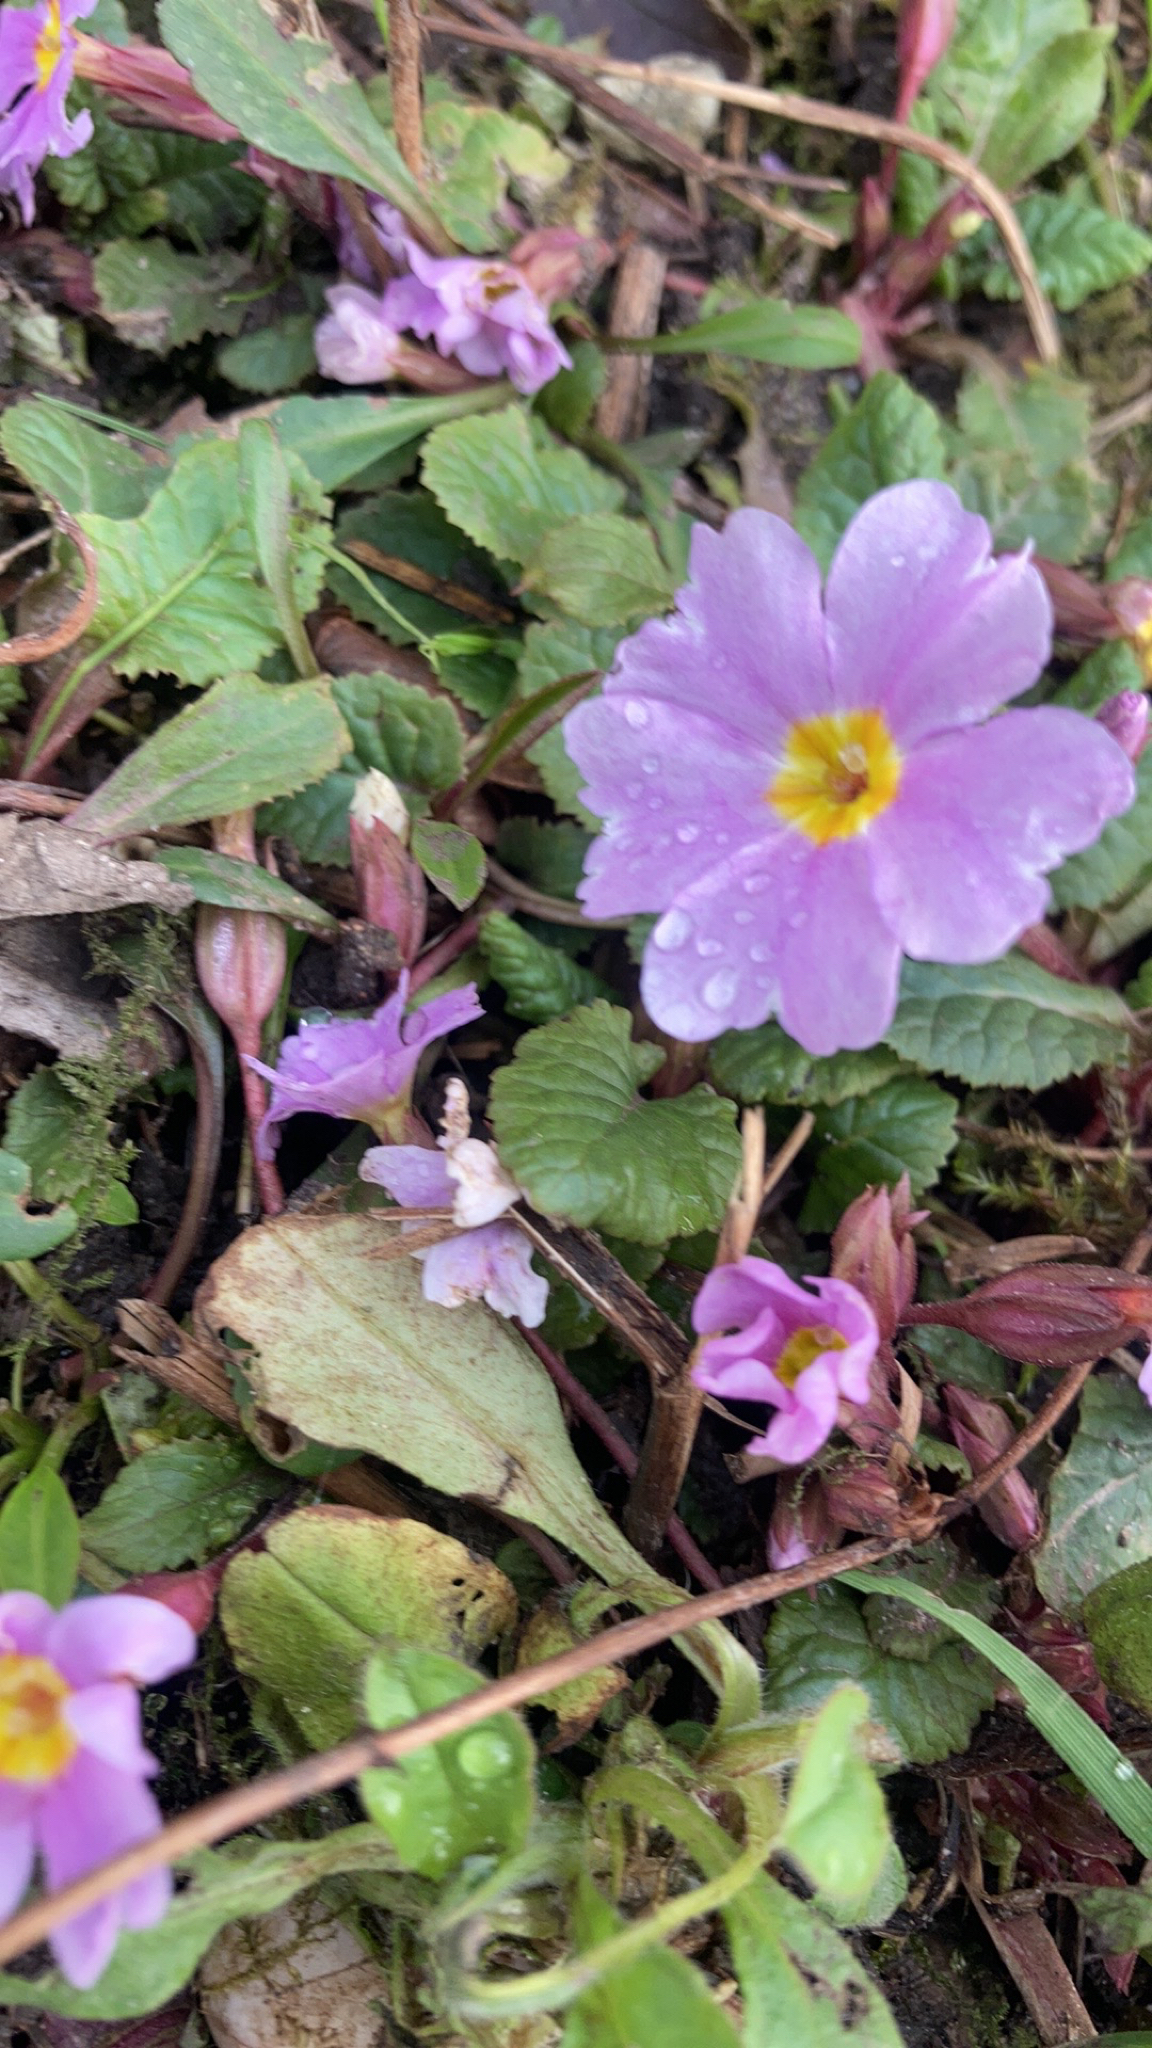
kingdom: Plantae
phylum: Tracheophyta
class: Magnoliopsida
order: Ericales
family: Primulaceae
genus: Primula
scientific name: Primula vulgaris
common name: Primrose
